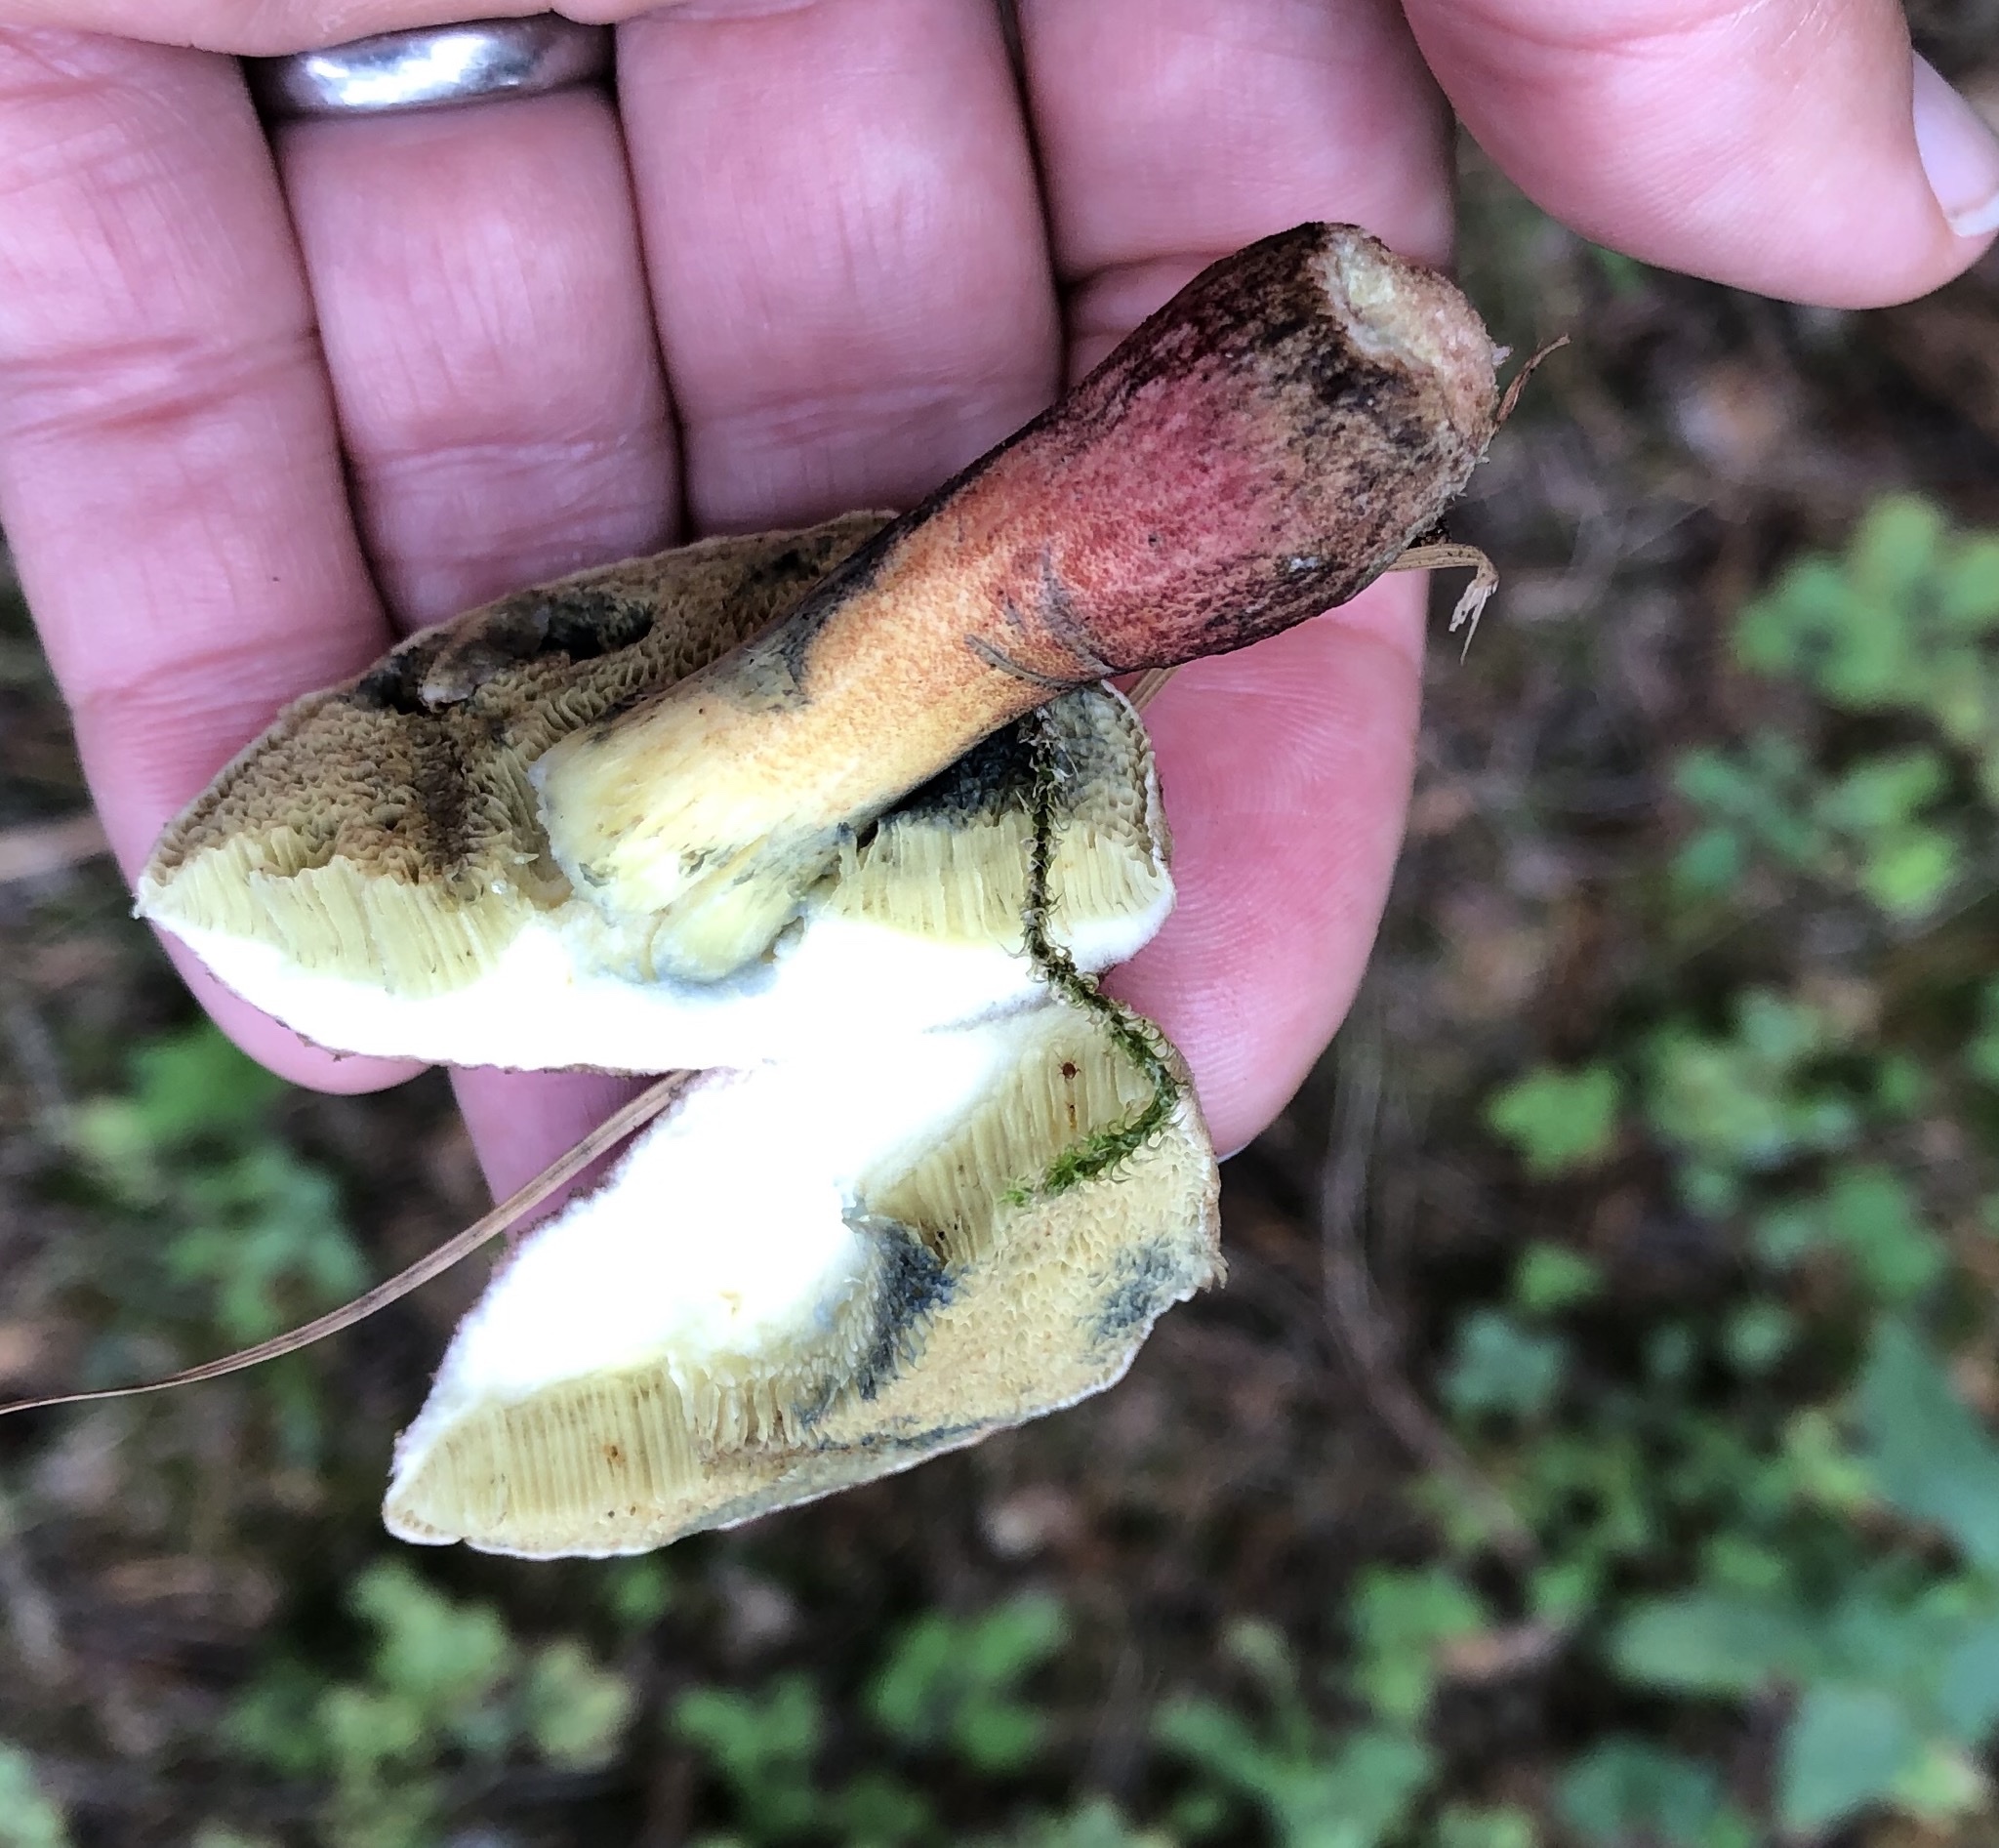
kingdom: Fungi
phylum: Basidiomycota
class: Agaricomycetes
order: Boletales
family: Boletaceae
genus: Xerocomellus
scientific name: Xerocomellus chrysenteron
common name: Red-cracking bolete
